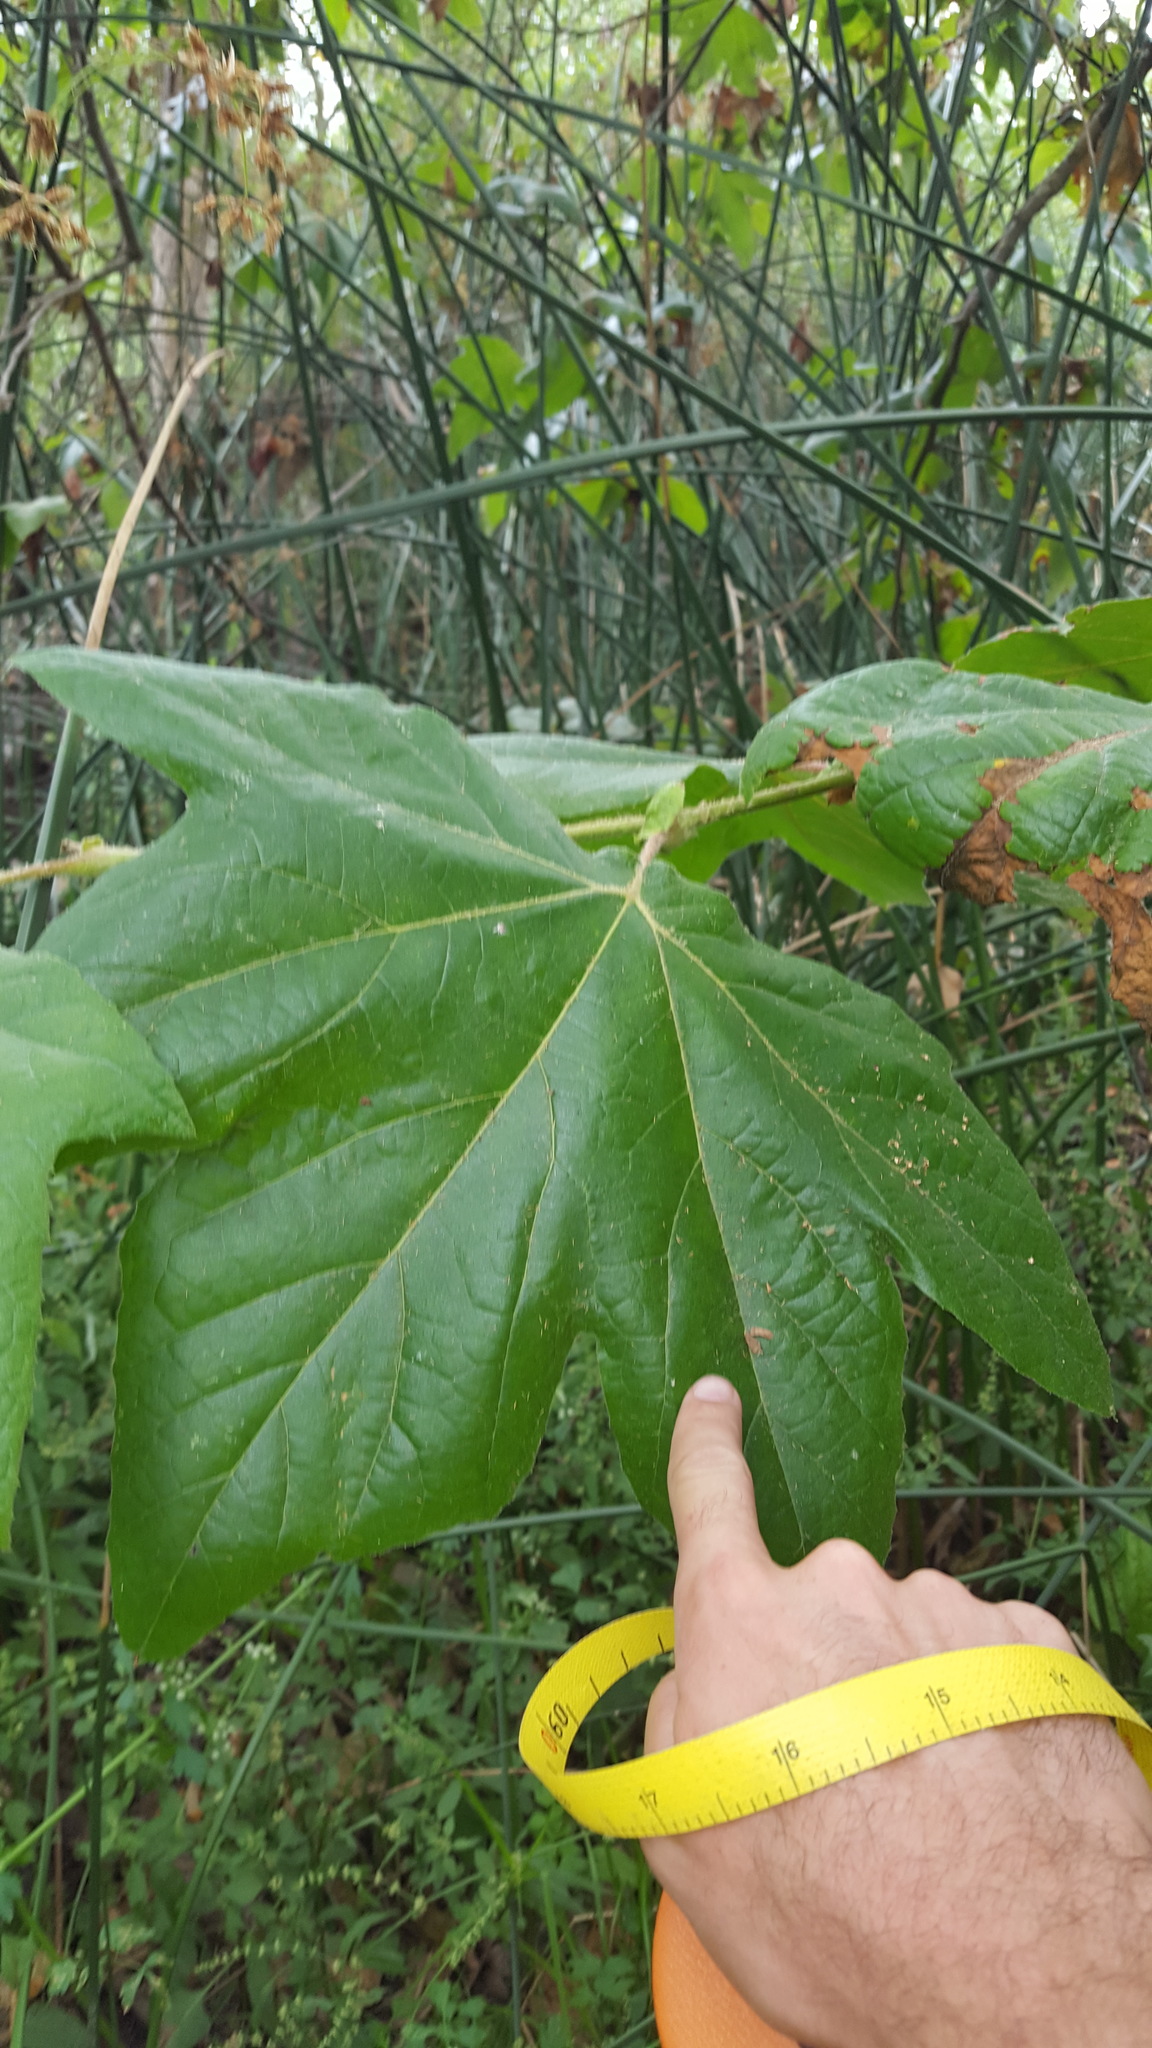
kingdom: Plantae
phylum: Tracheophyta
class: Magnoliopsida
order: Proteales
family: Platanaceae
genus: Platanus
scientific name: Platanus racemosa
